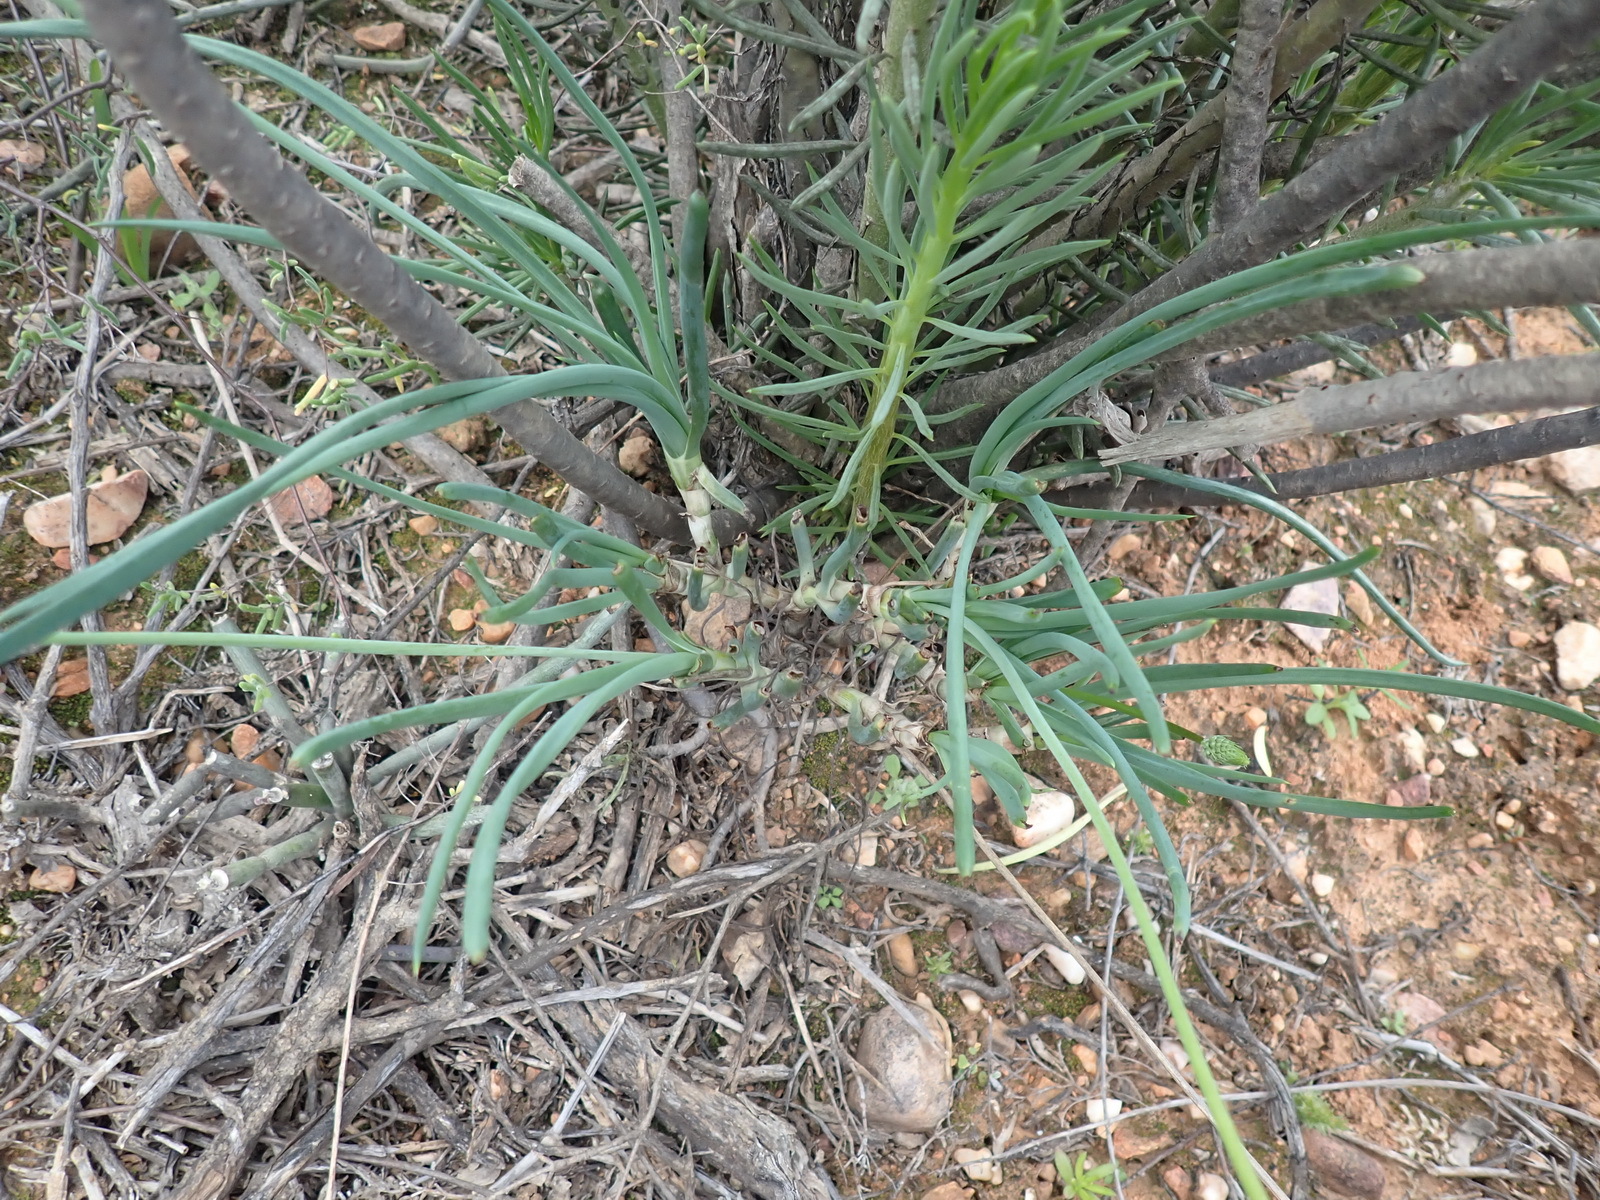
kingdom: Plantae
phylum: Tracheophyta
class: Liliopsida
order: Asparagales
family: Asphodelaceae
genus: Bulbine
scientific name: Bulbine triebneri
